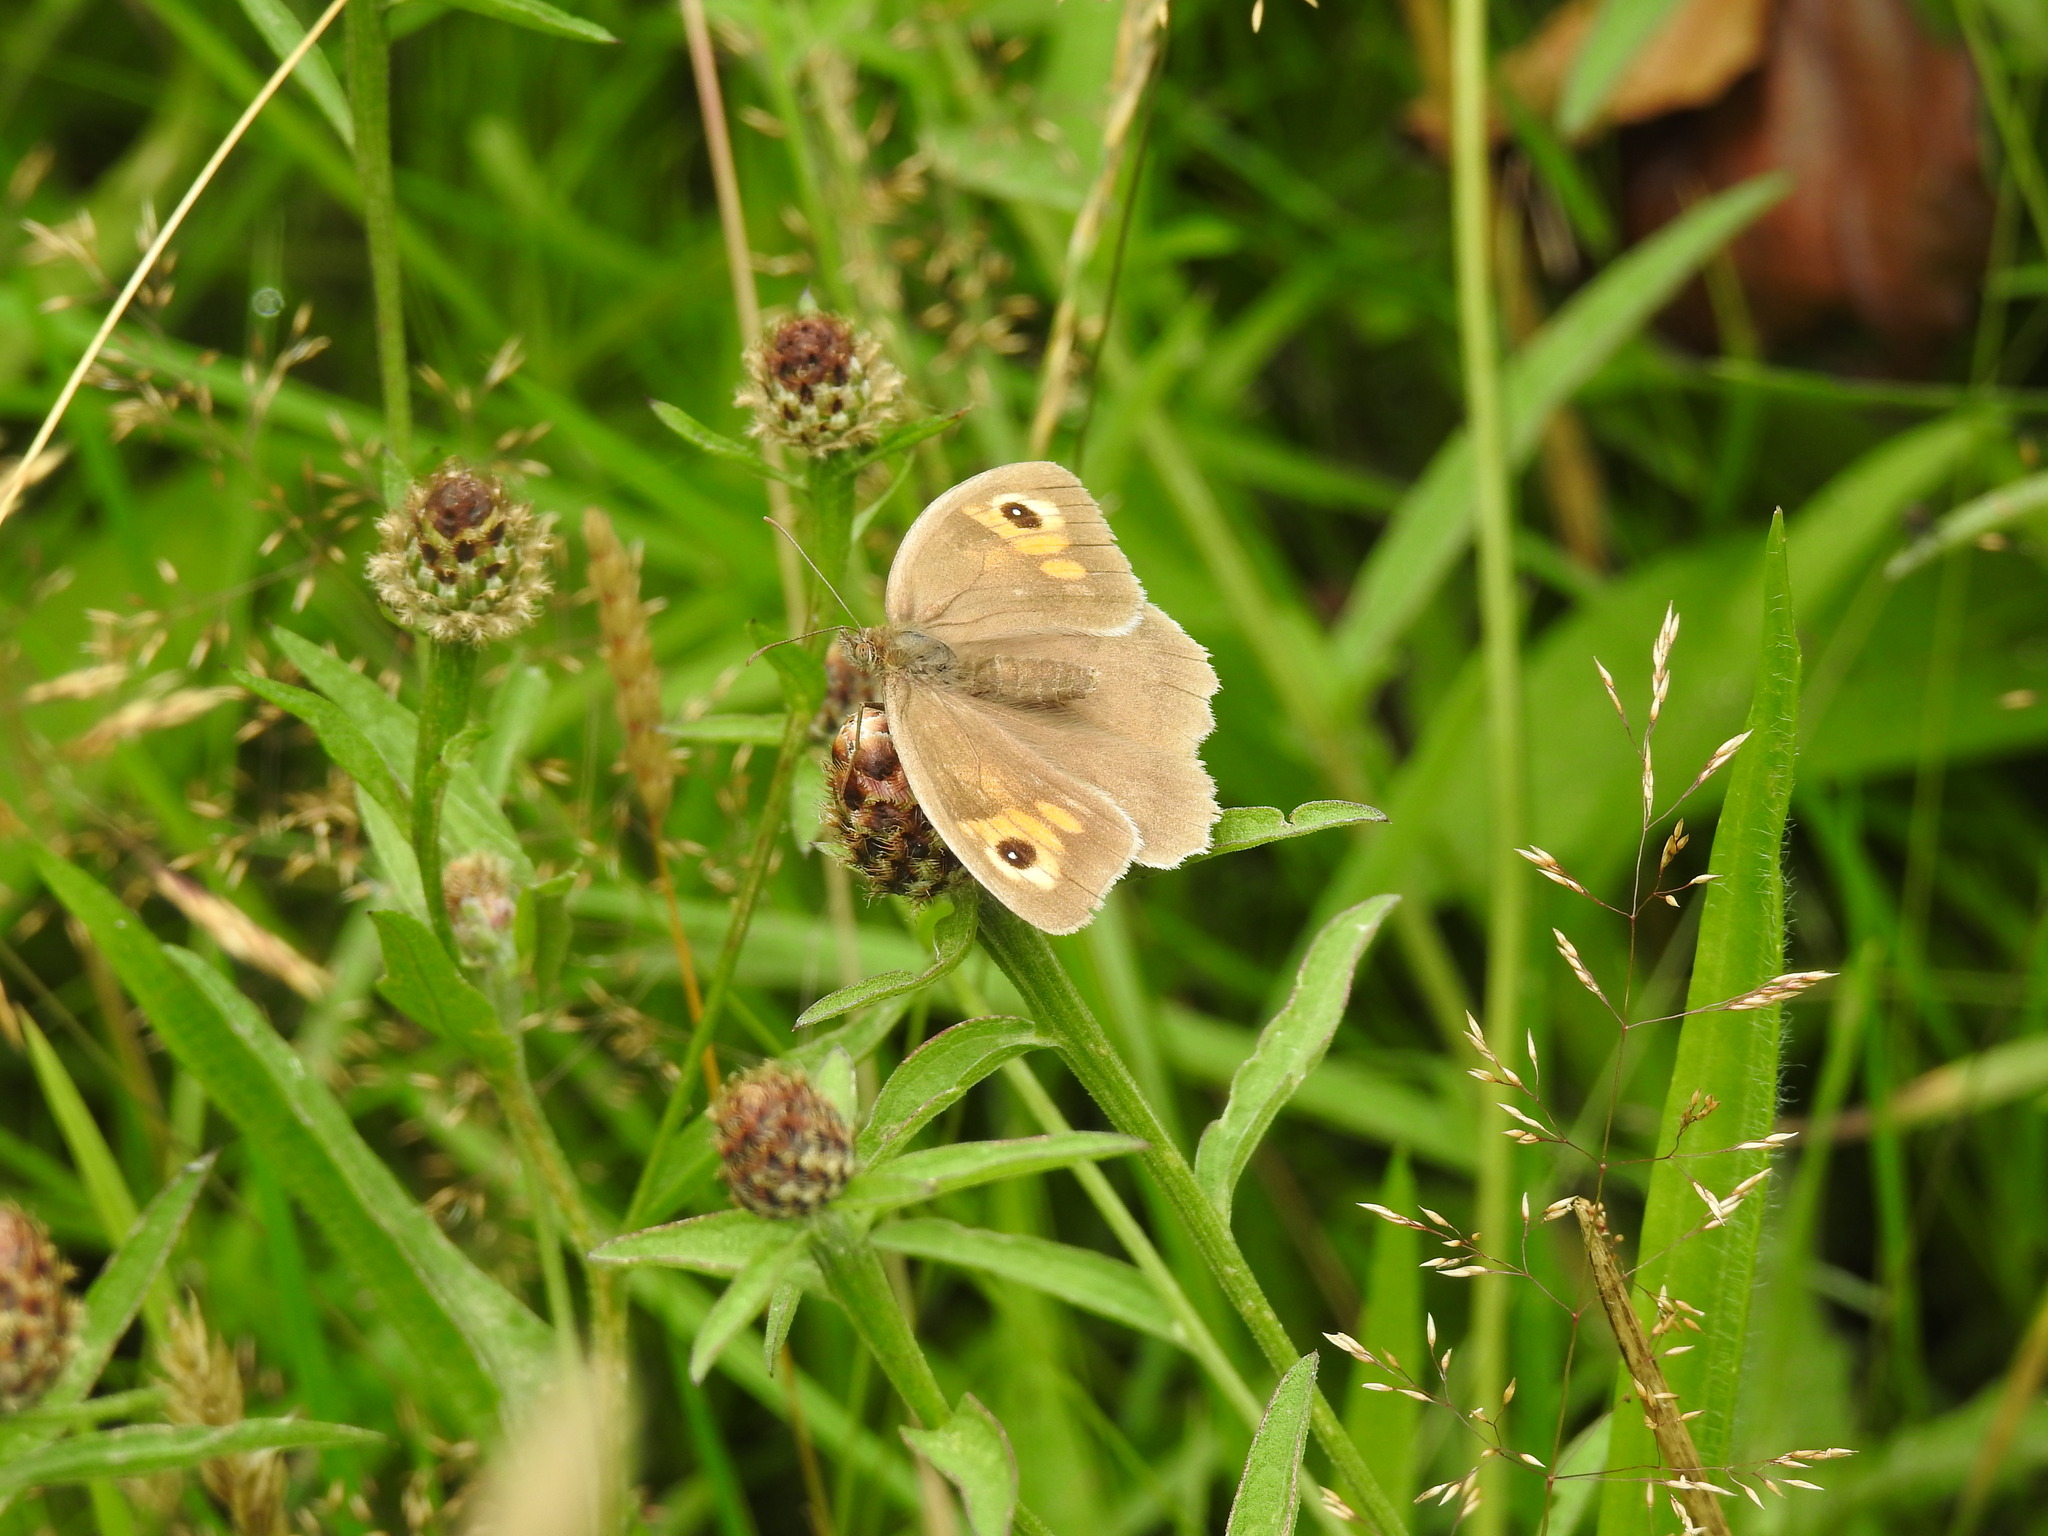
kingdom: Animalia
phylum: Arthropoda
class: Insecta
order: Lepidoptera
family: Nymphalidae
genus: Maniola
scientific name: Maniola jurtina
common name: Meadow brown
